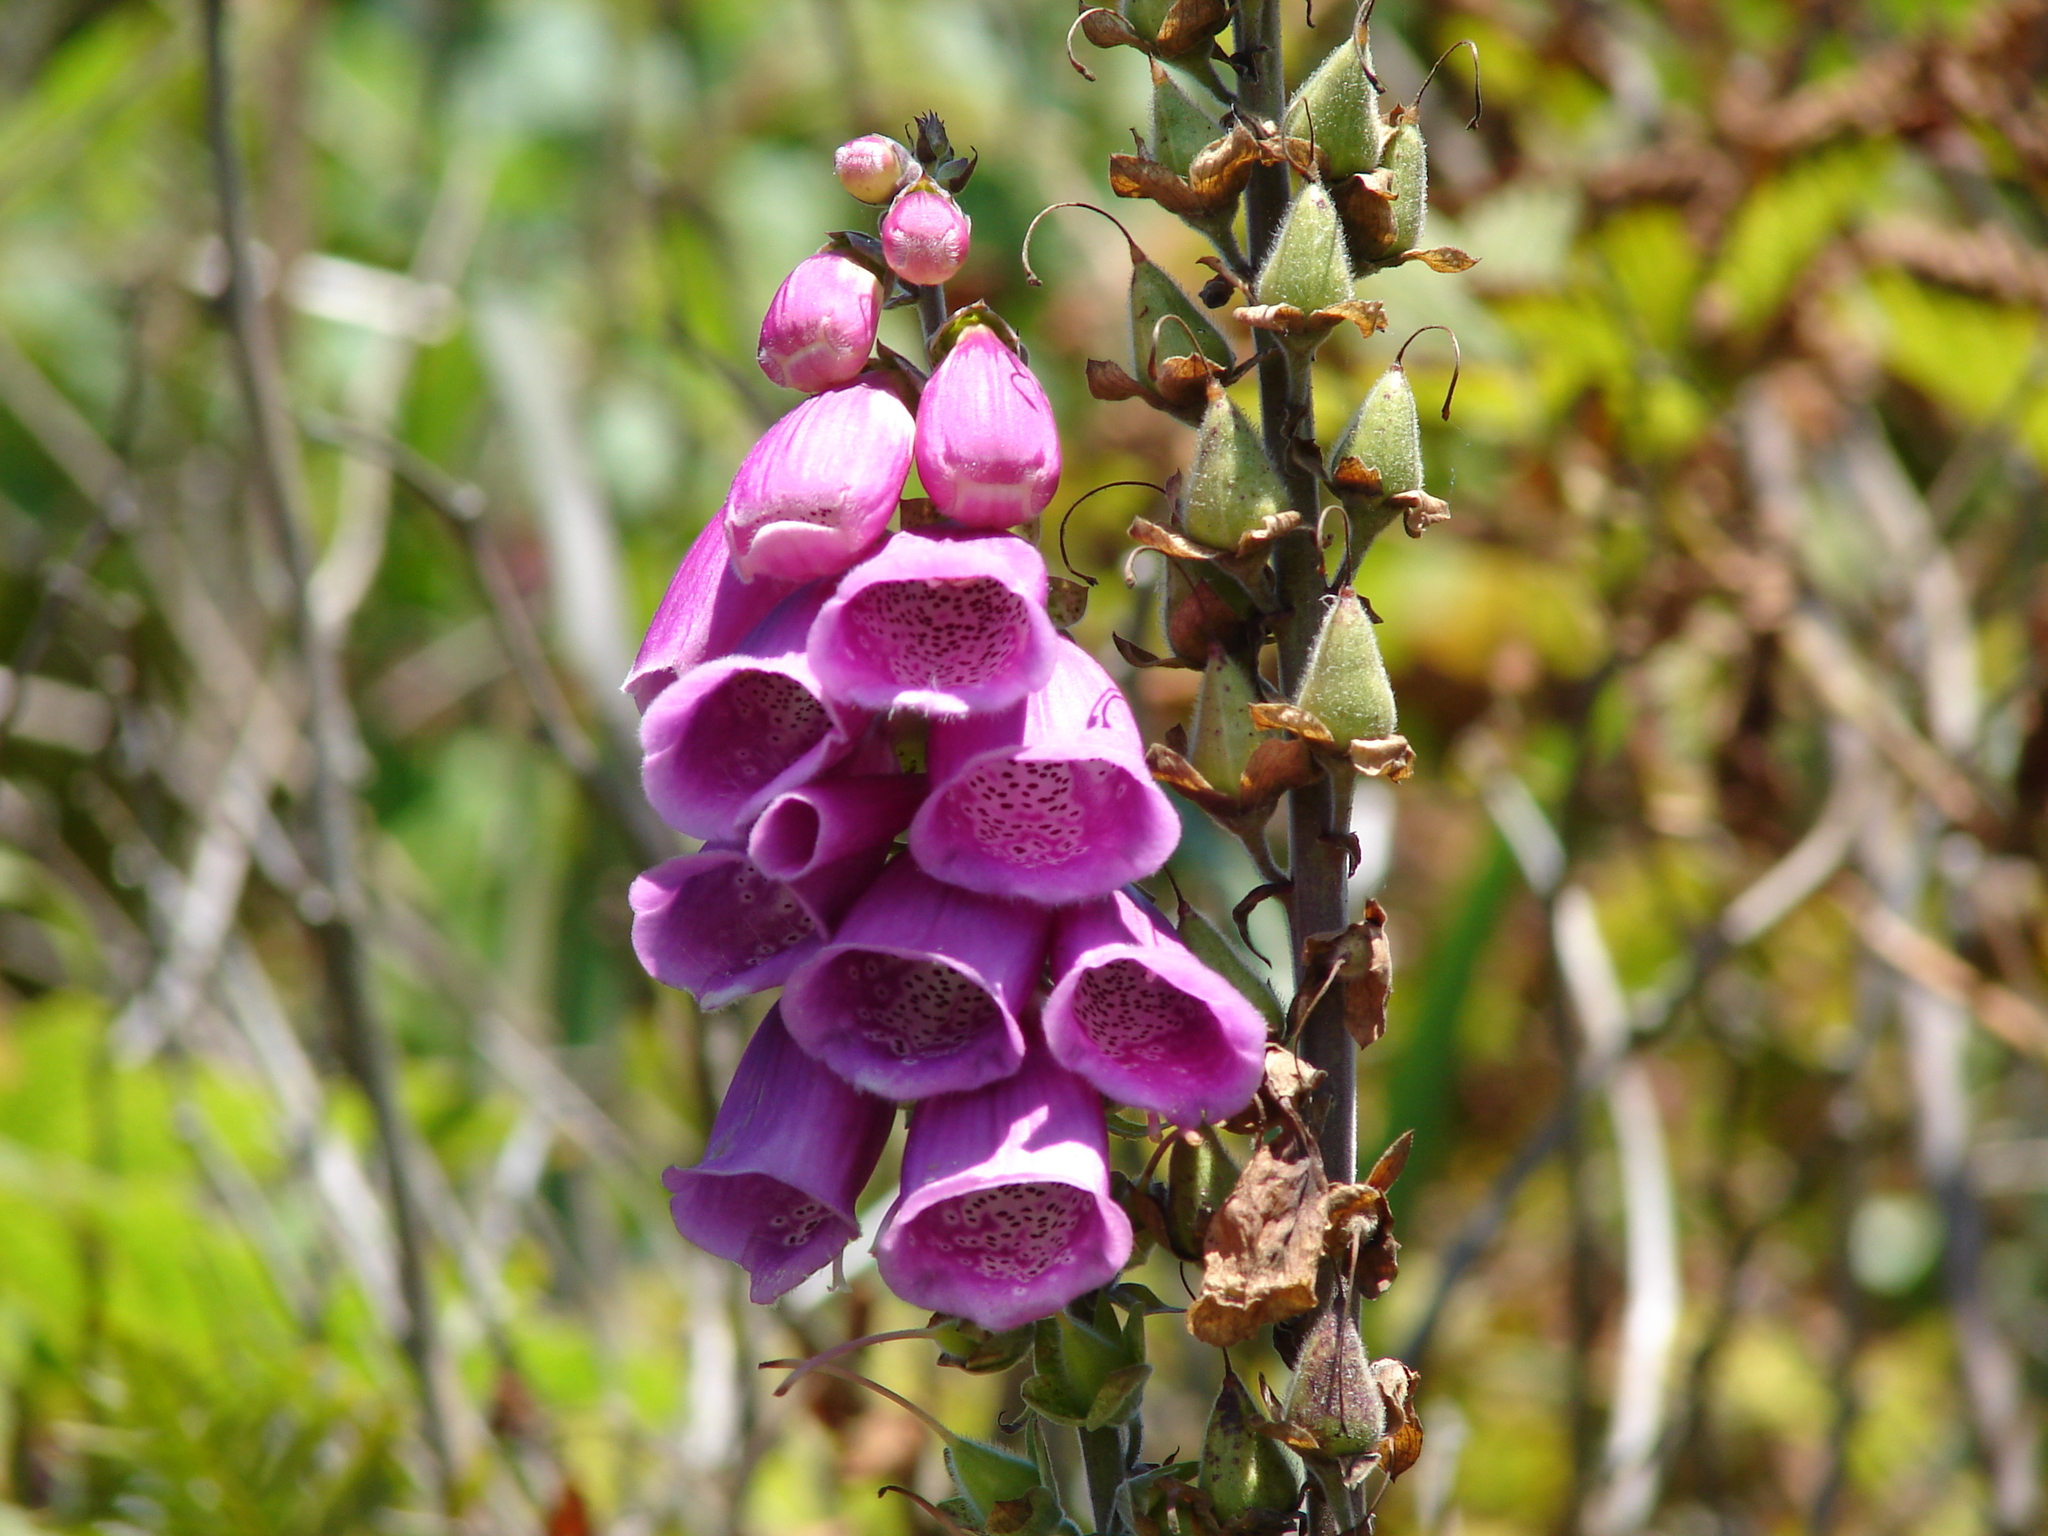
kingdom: Plantae
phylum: Tracheophyta
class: Magnoliopsida
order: Lamiales
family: Plantaginaceae
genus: Digitalis
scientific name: Digitalis purpurea
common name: Foxglove
